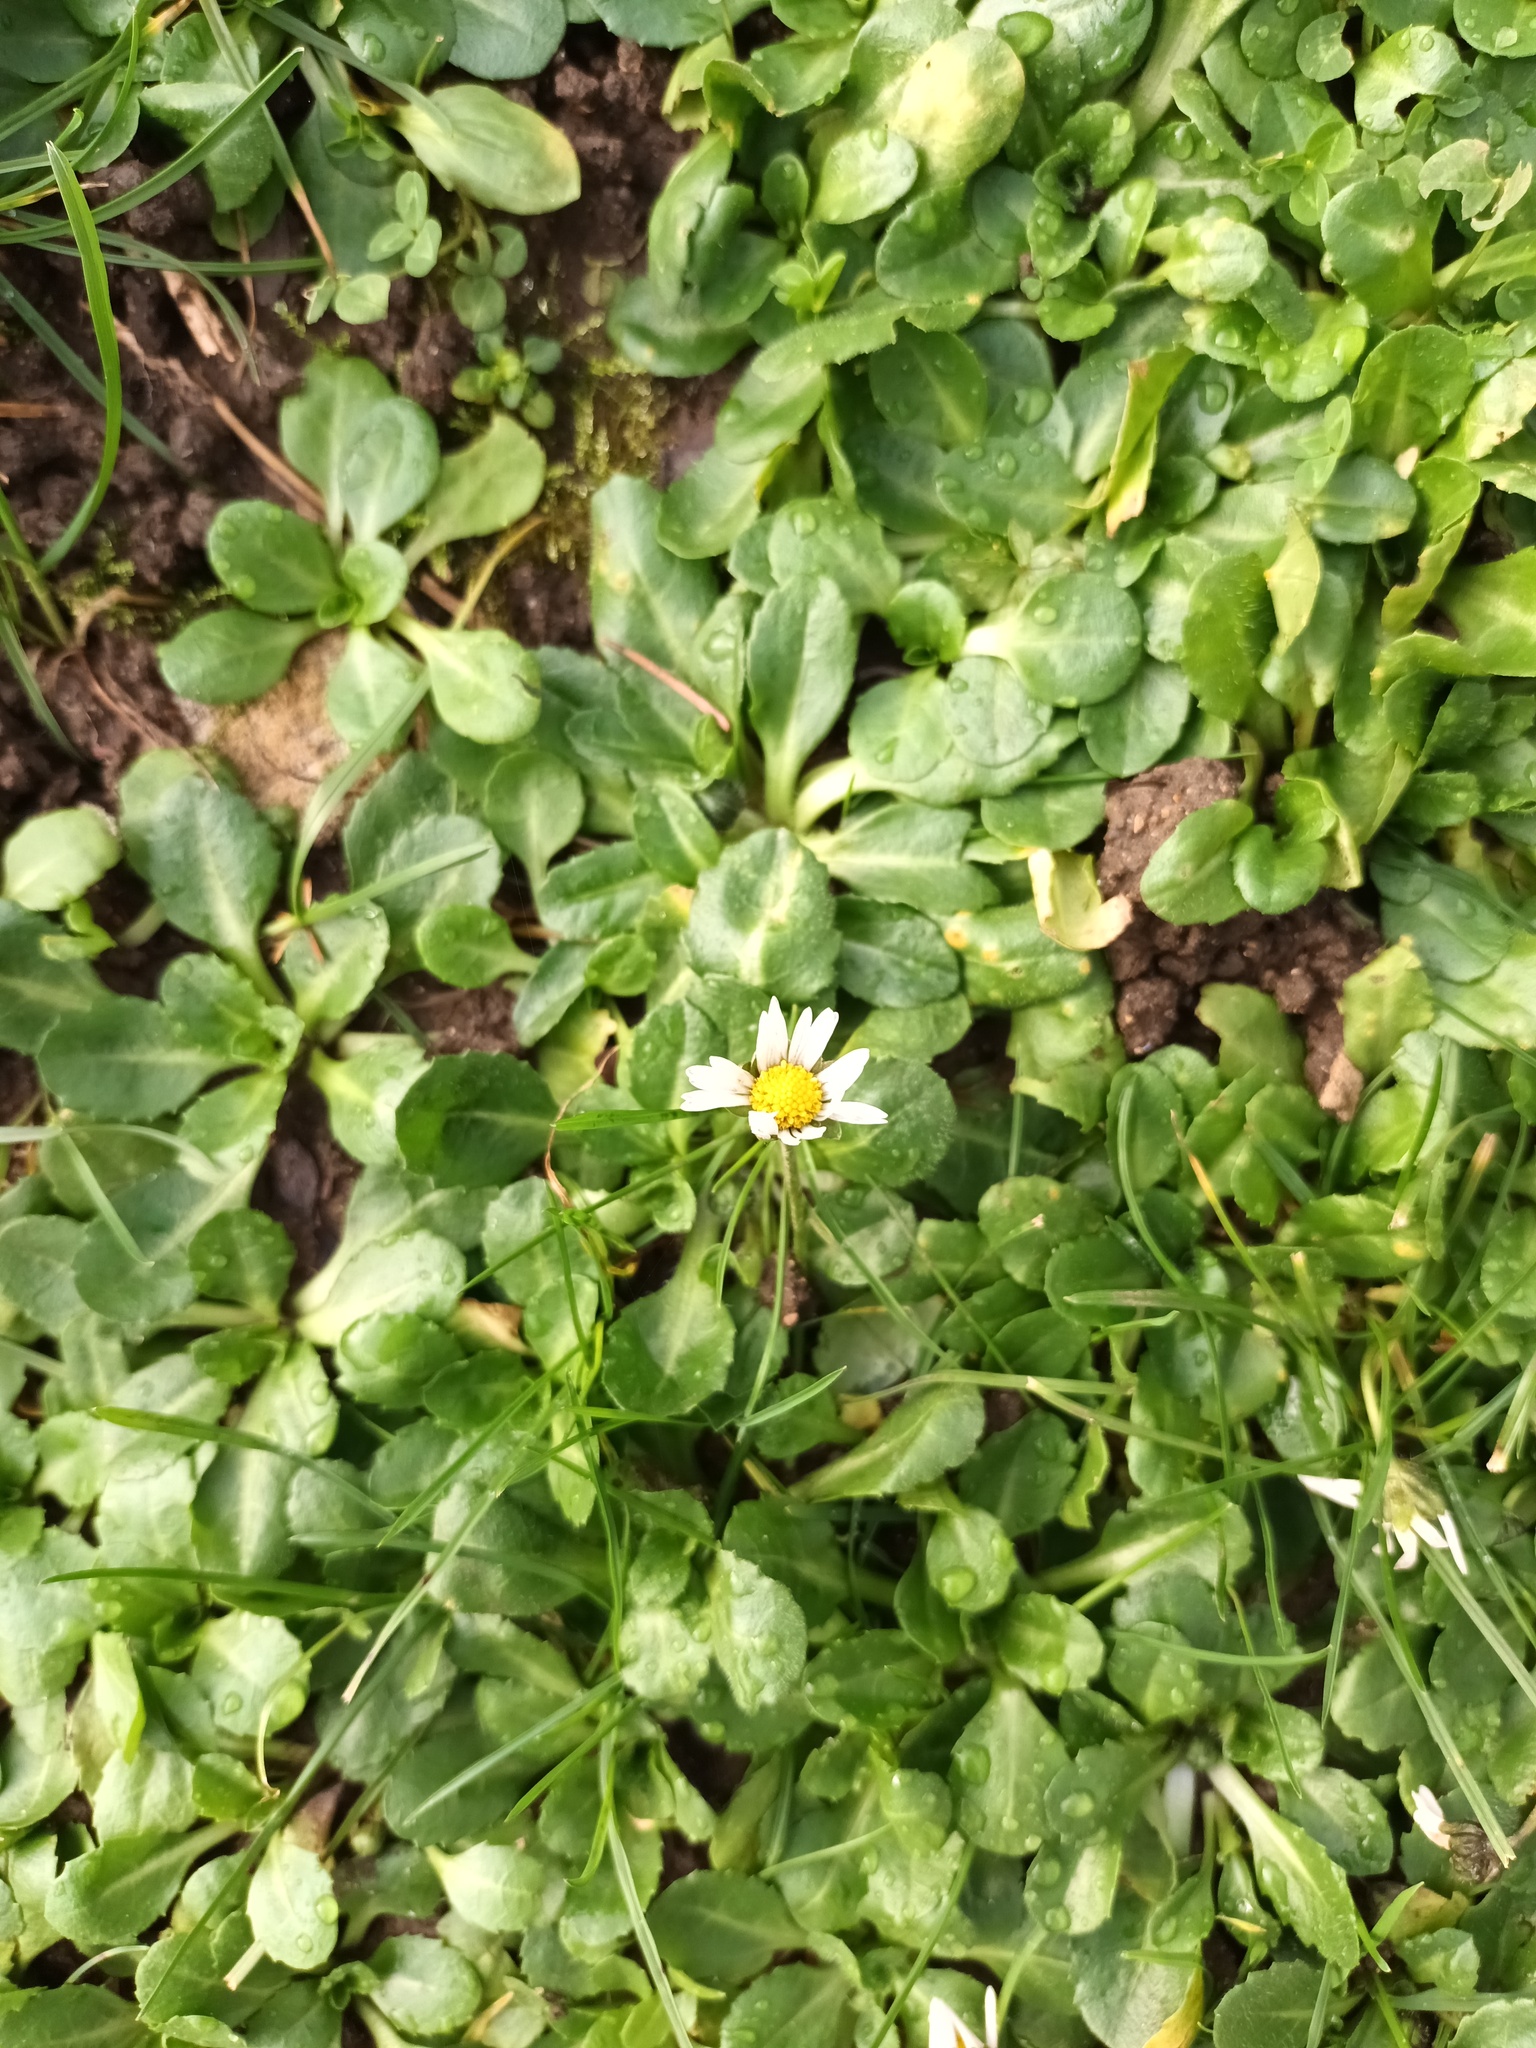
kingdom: Plantae
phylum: Tracheophyta
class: Magnoliopsida
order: Asterales
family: Asteraceae
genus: Bellis
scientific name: Bellis perennis
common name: Lawndaisy
